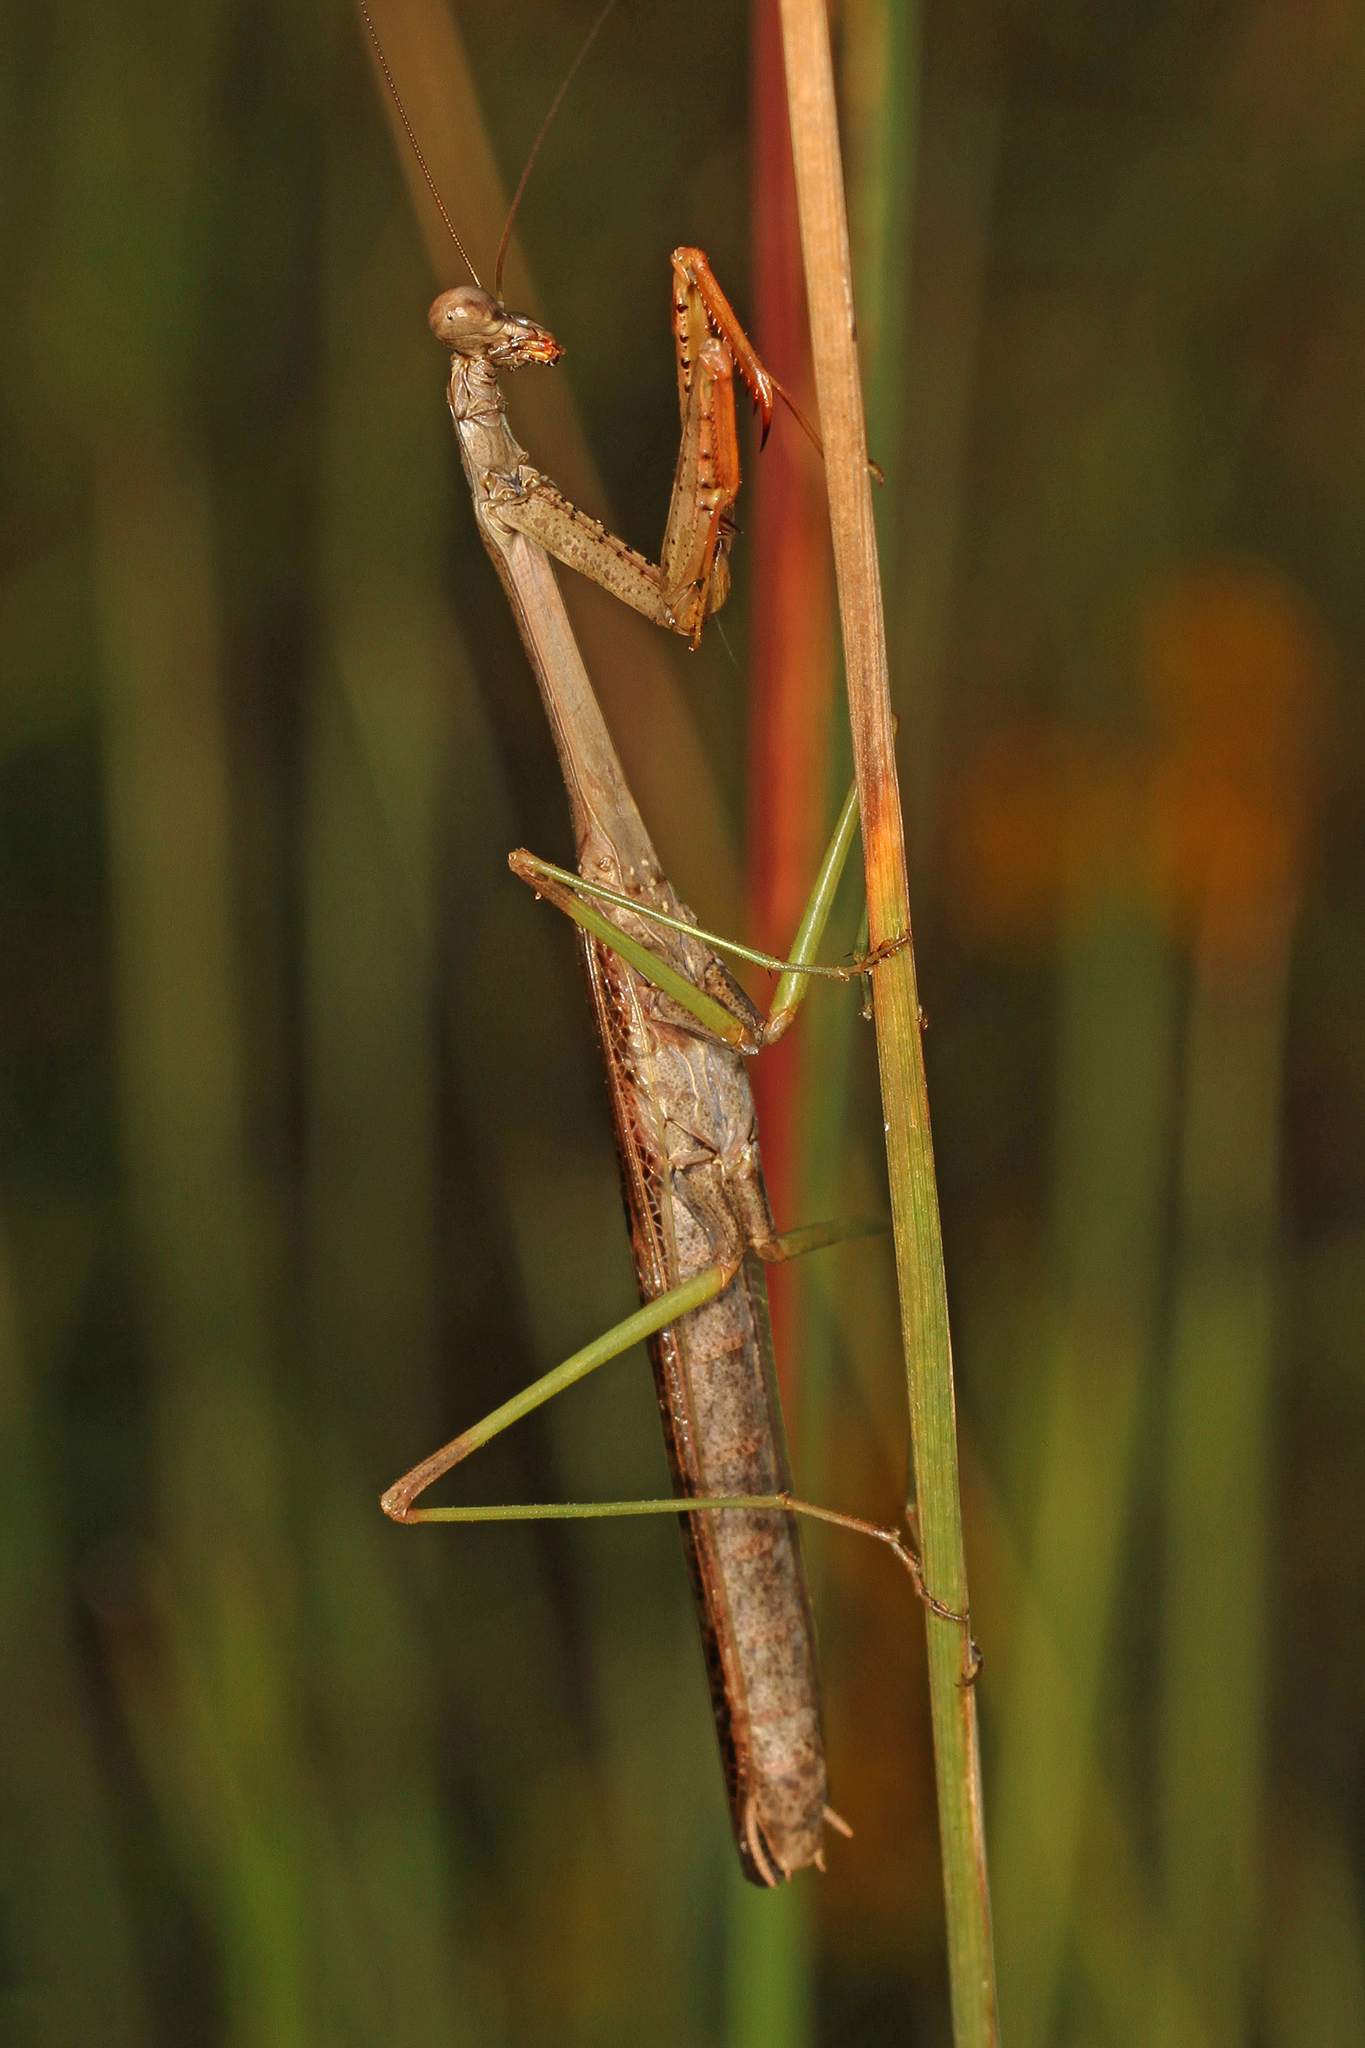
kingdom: Animalia
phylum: Arthropoda
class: Insecta
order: Mantodea
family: Mantidae
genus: Stagmomantis
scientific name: Stagmomantis carolina
